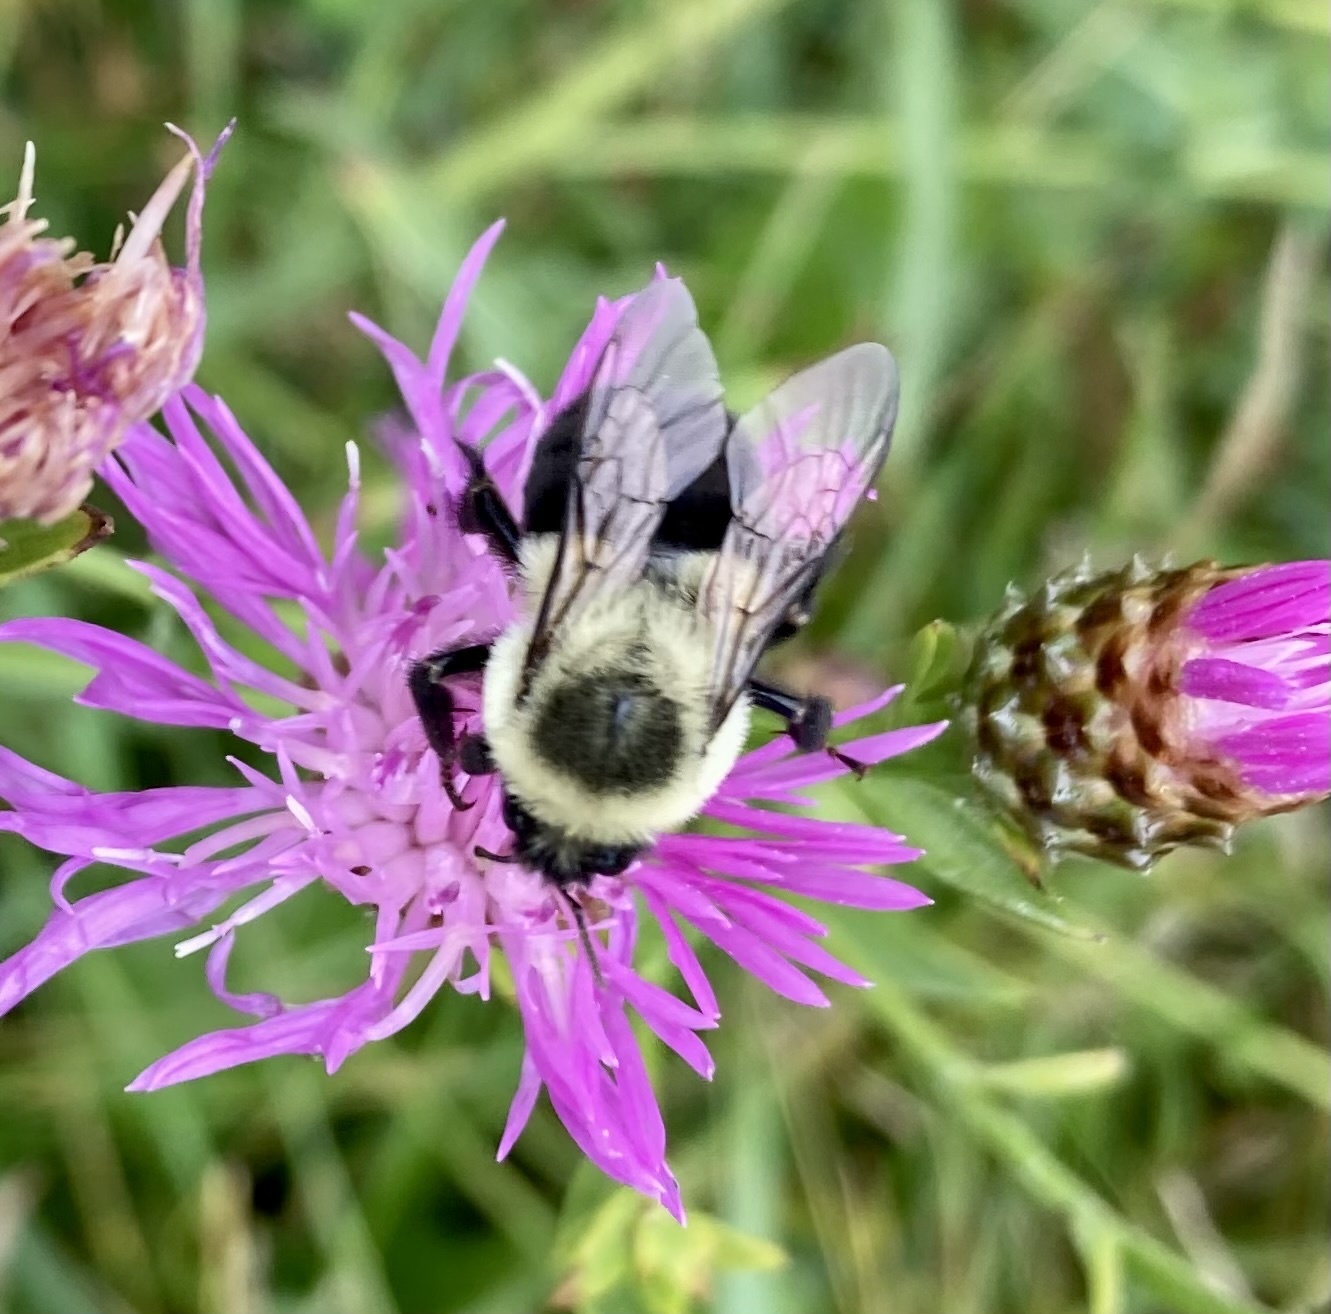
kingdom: Animalia
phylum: Arthropoda
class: Insecta
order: Hymenoptera
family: Apidae
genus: Bombus
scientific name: Bombus impatiens
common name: Common eastern bumble bee
